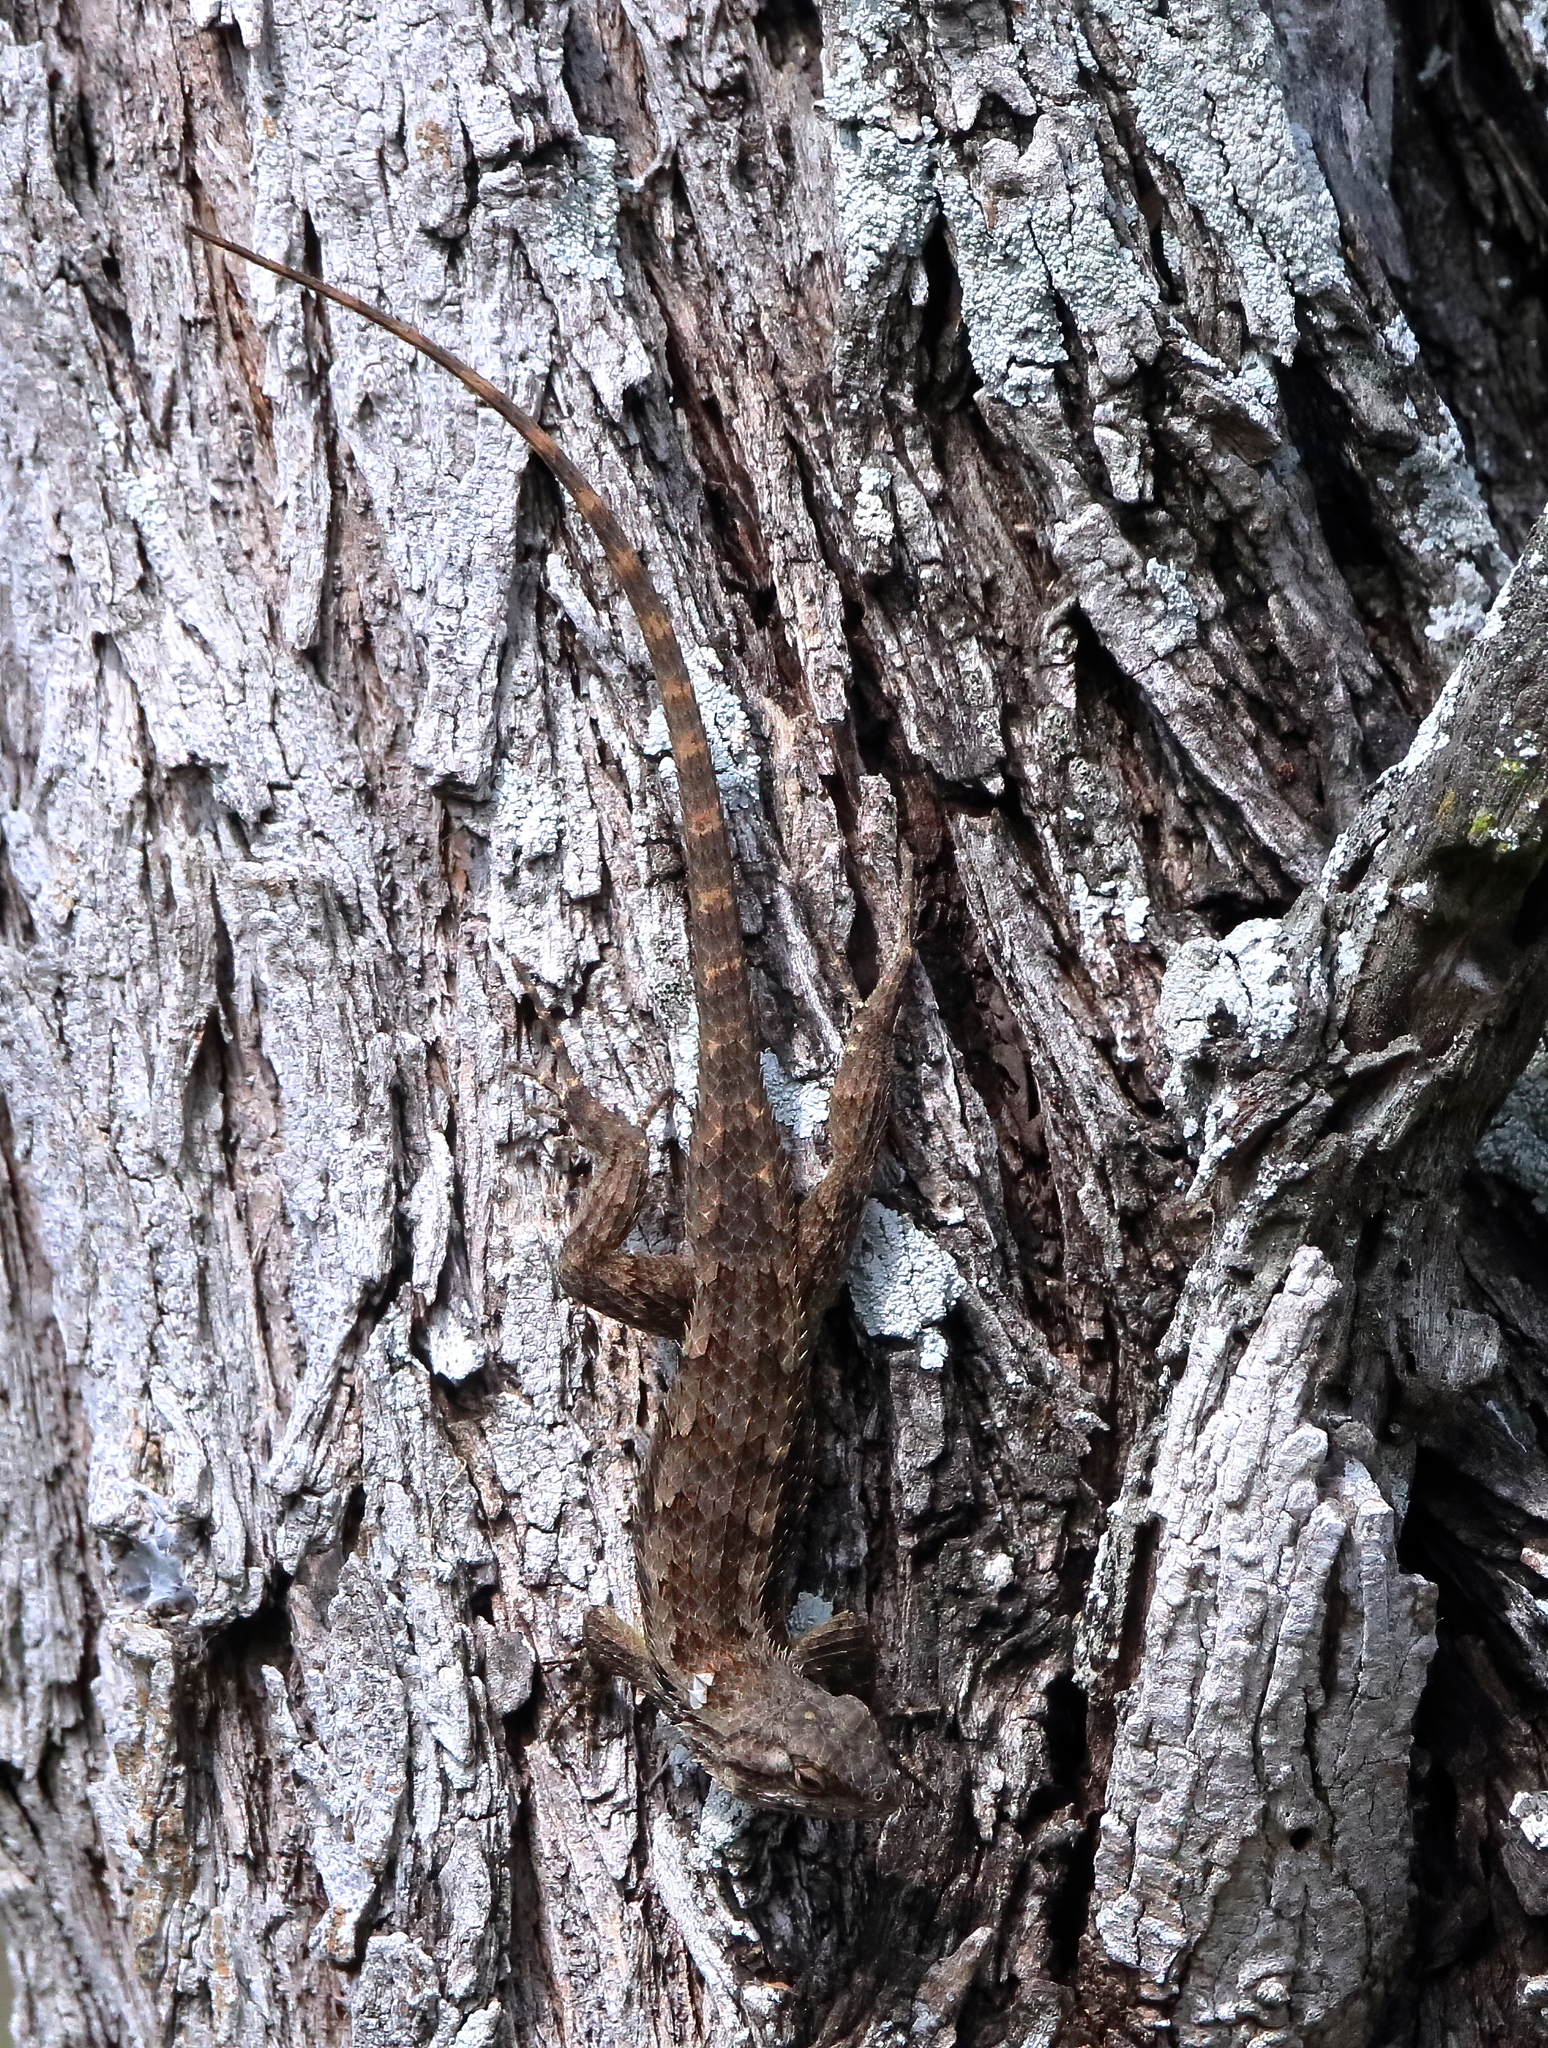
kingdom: Animalia
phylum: Chordata
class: Squamata
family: Phrynosomatidae
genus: Sceloporus
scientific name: Sceloporus olivaceus
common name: Texas spiny lizard
